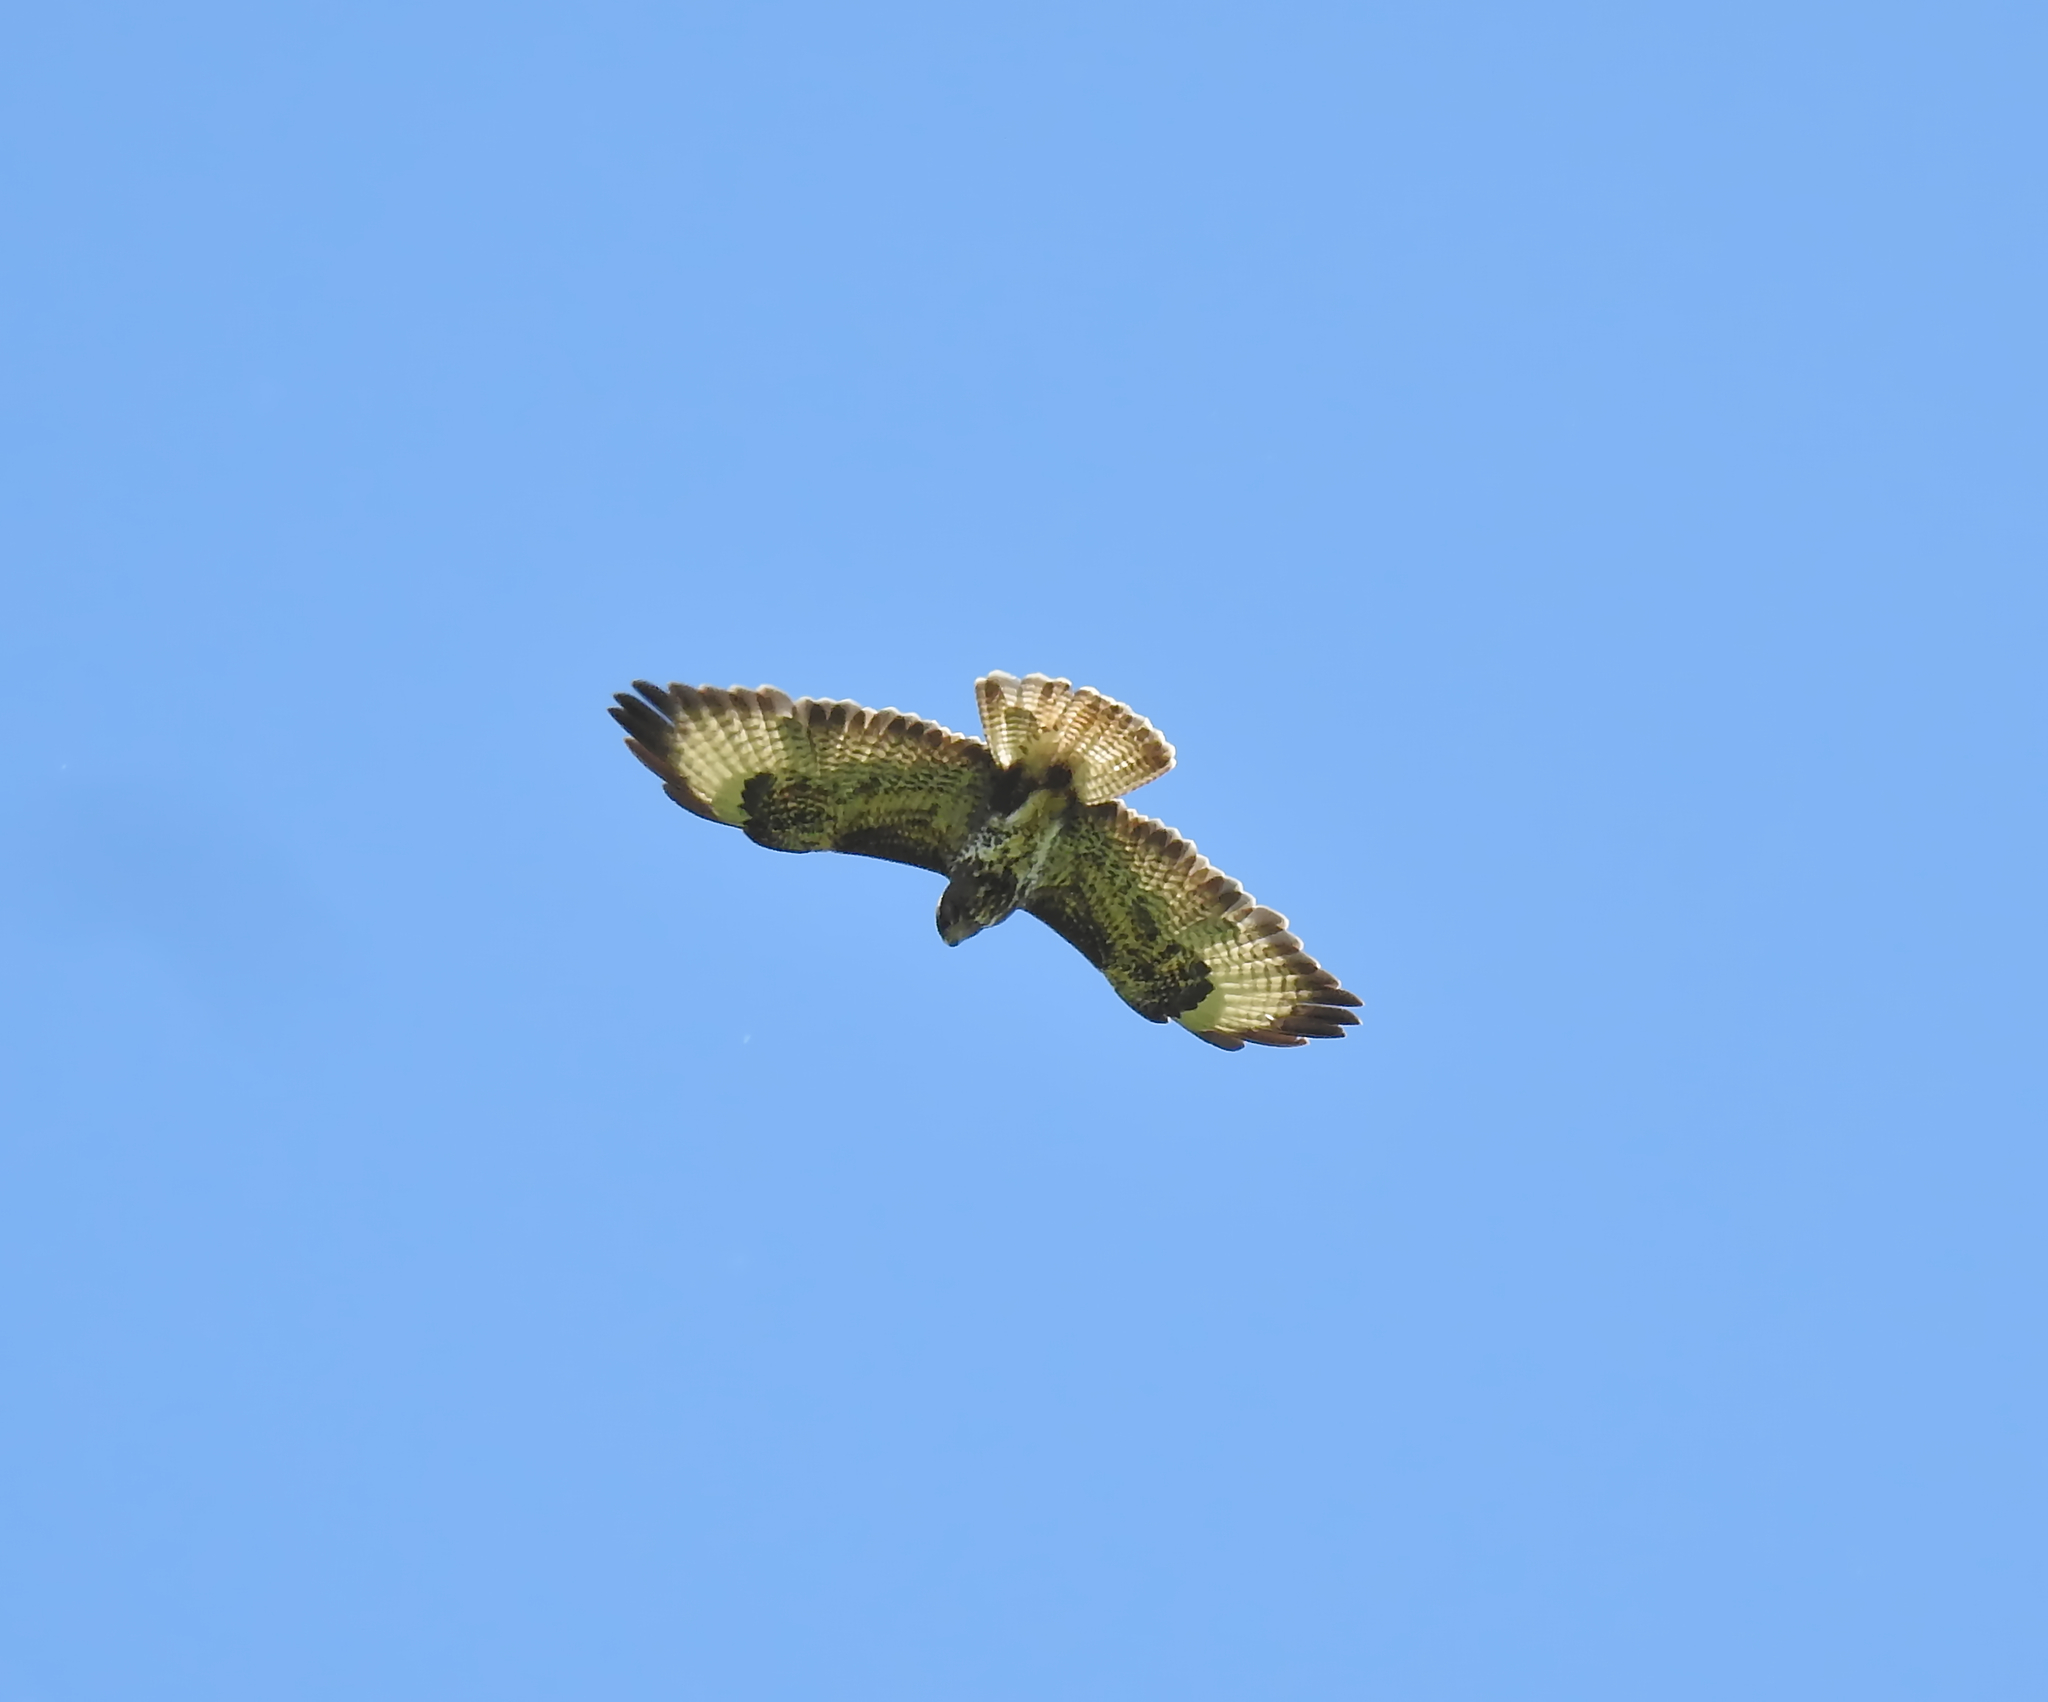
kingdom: Animalia
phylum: Chordata
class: Aves
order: Accipitriformes
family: Accipitridae
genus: Buteo
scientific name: Buteo buteo
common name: Common buzzard
